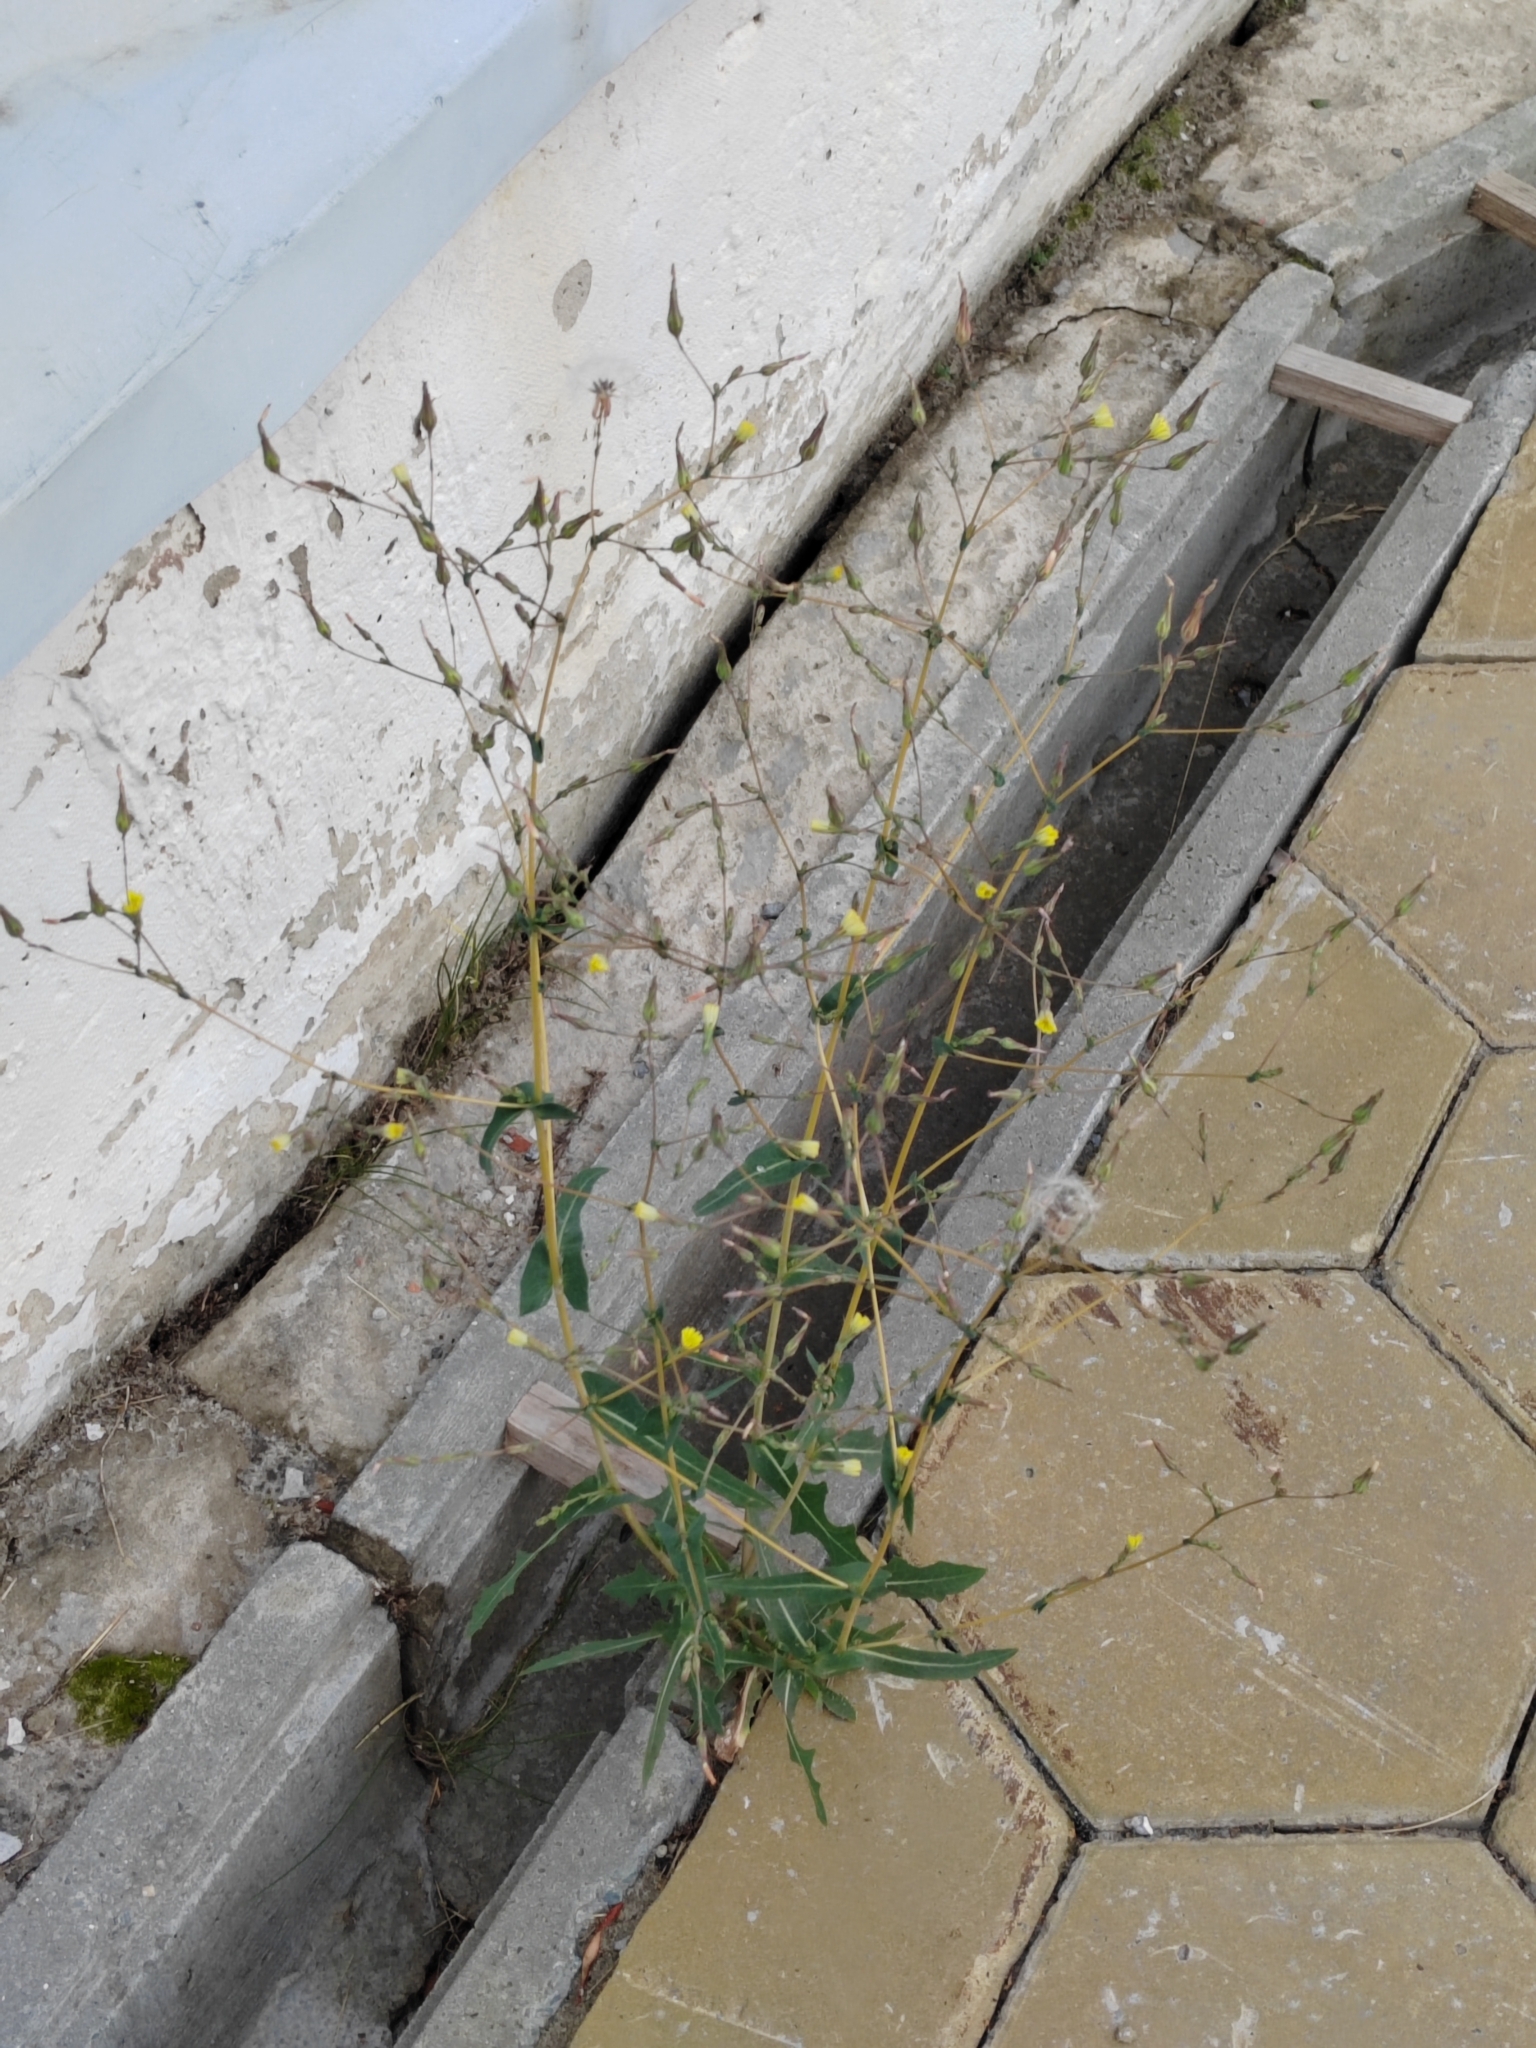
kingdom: Plantae
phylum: Tracheophyta
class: Magnoliopsida
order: Asterales
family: Asteraceae
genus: Lactuca
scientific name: Lactuca serriola
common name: Prickly lettuce
